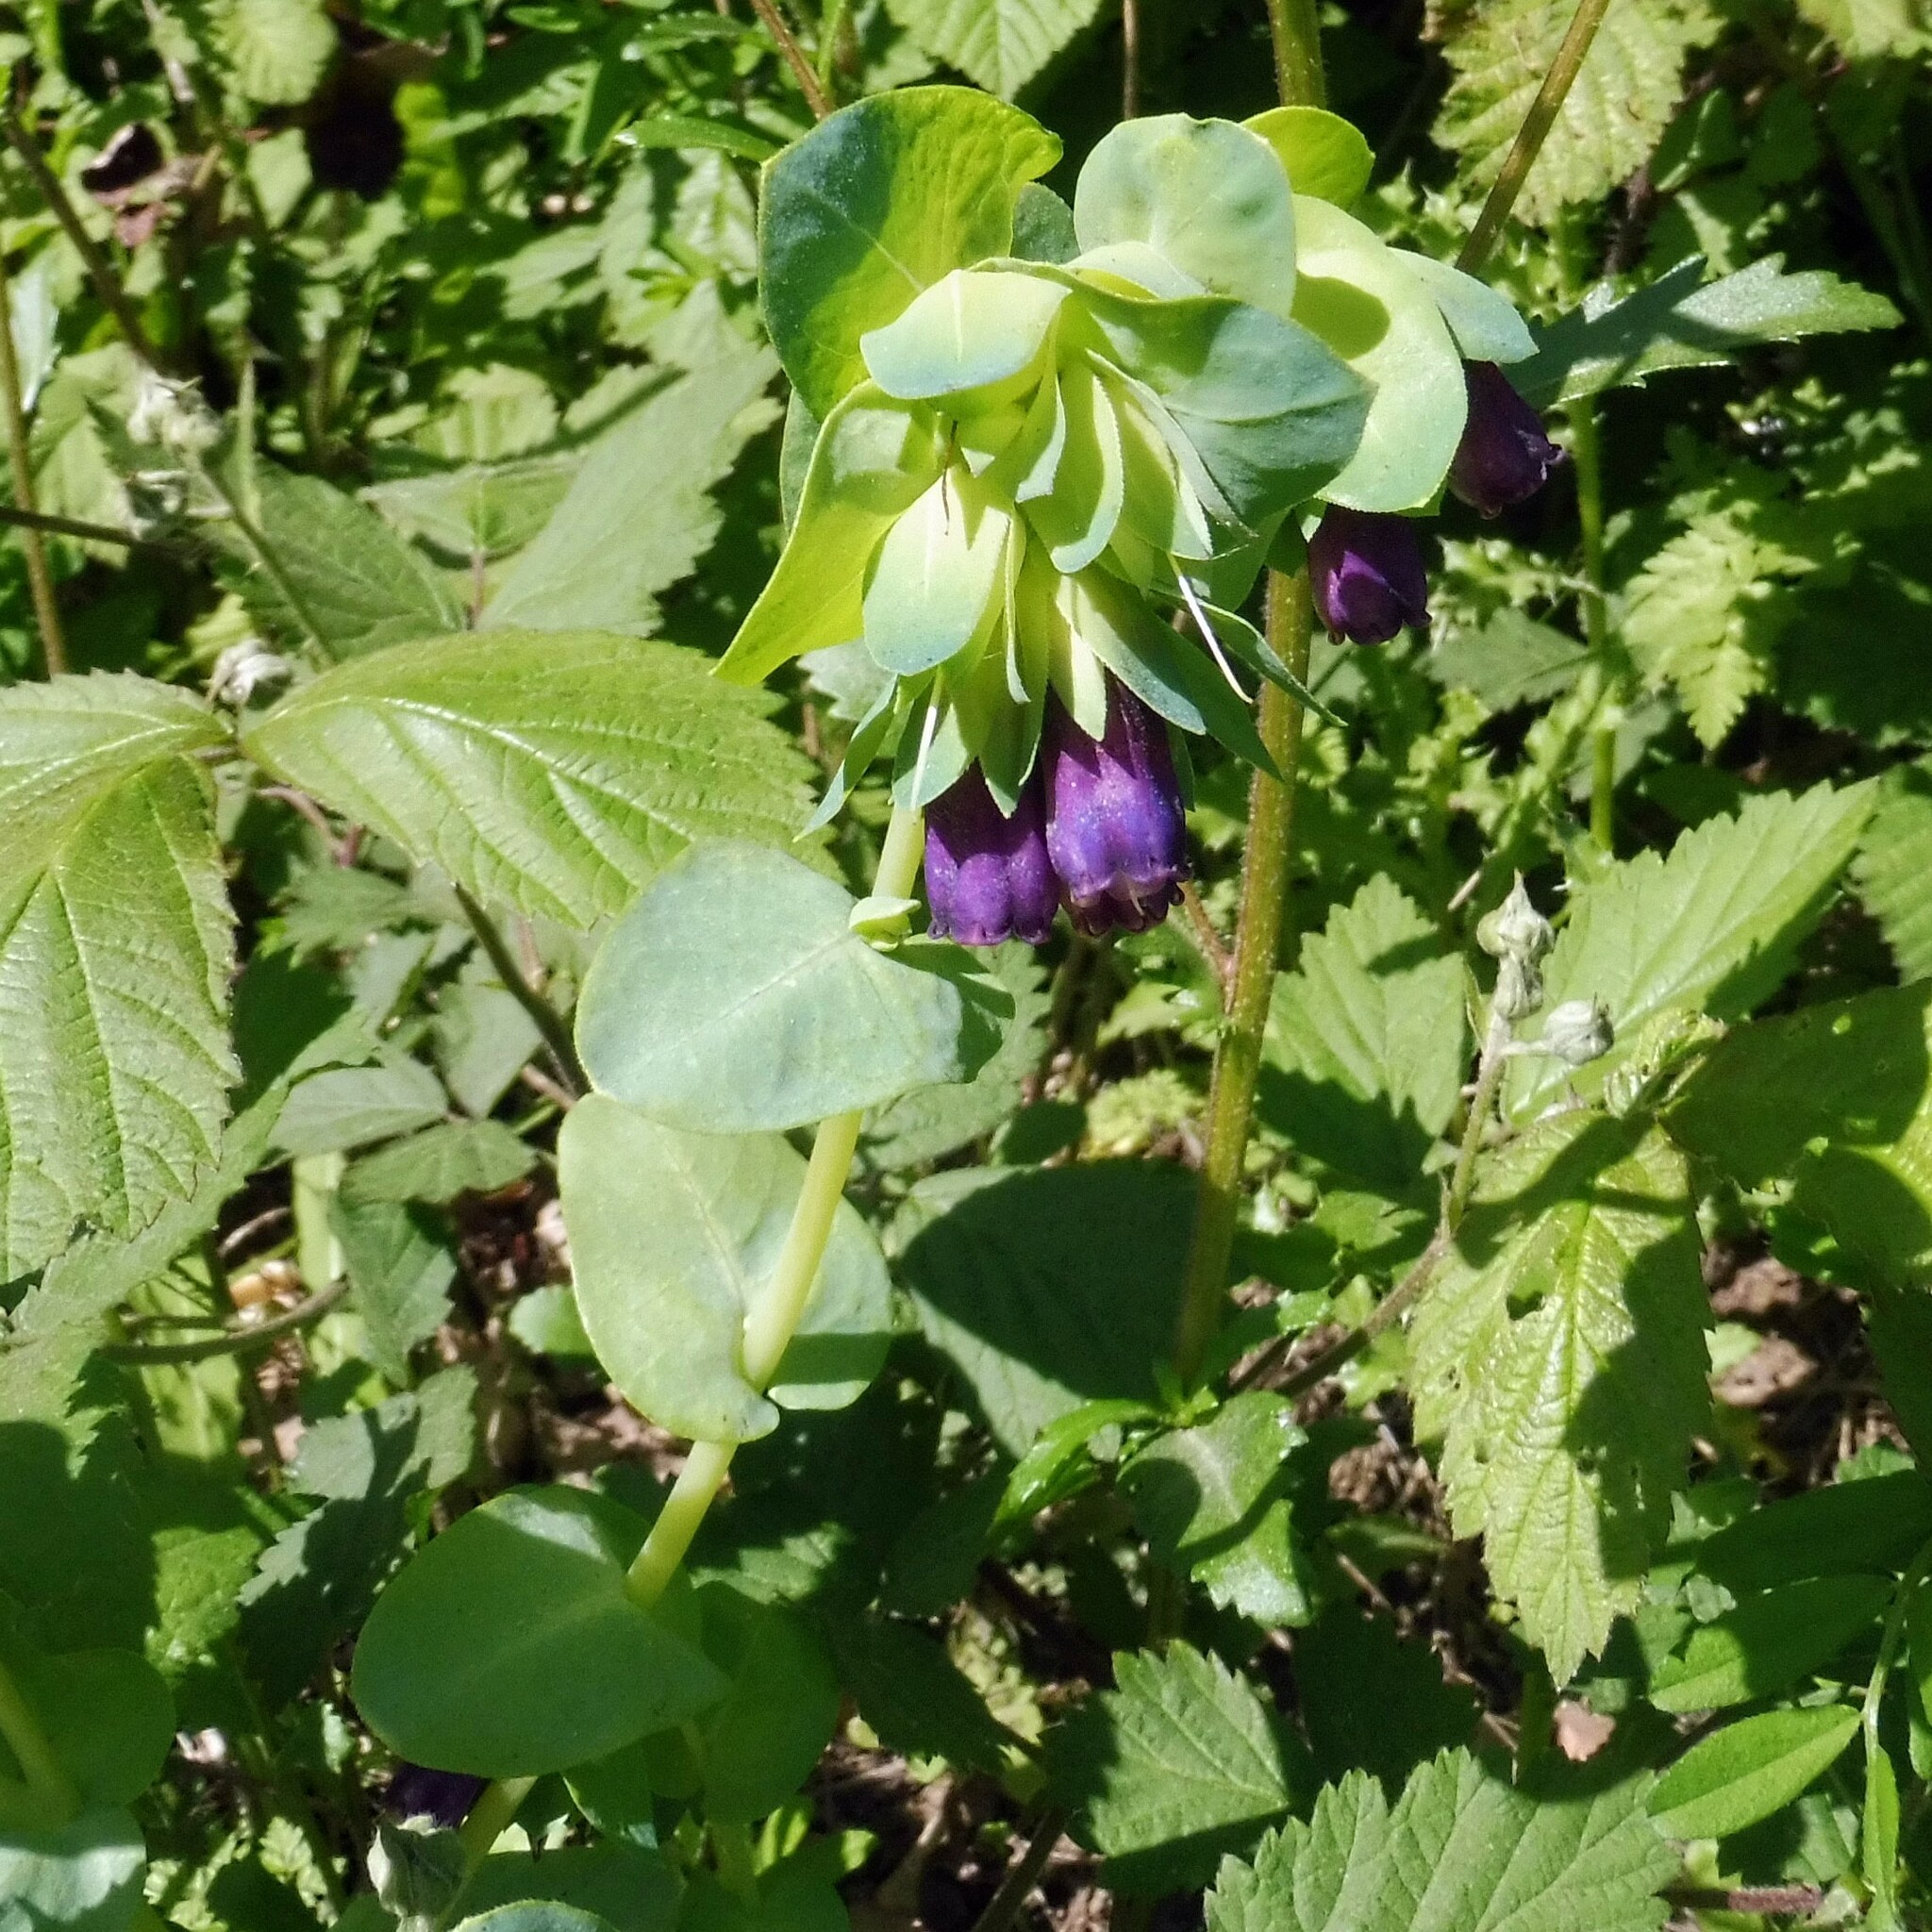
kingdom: Plantae
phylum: Tracheophyta
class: Magnoliopsida
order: Boraginales
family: Boraginaceae
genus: Cerinthe
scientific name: Cerinthe major
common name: Greater honeywort
